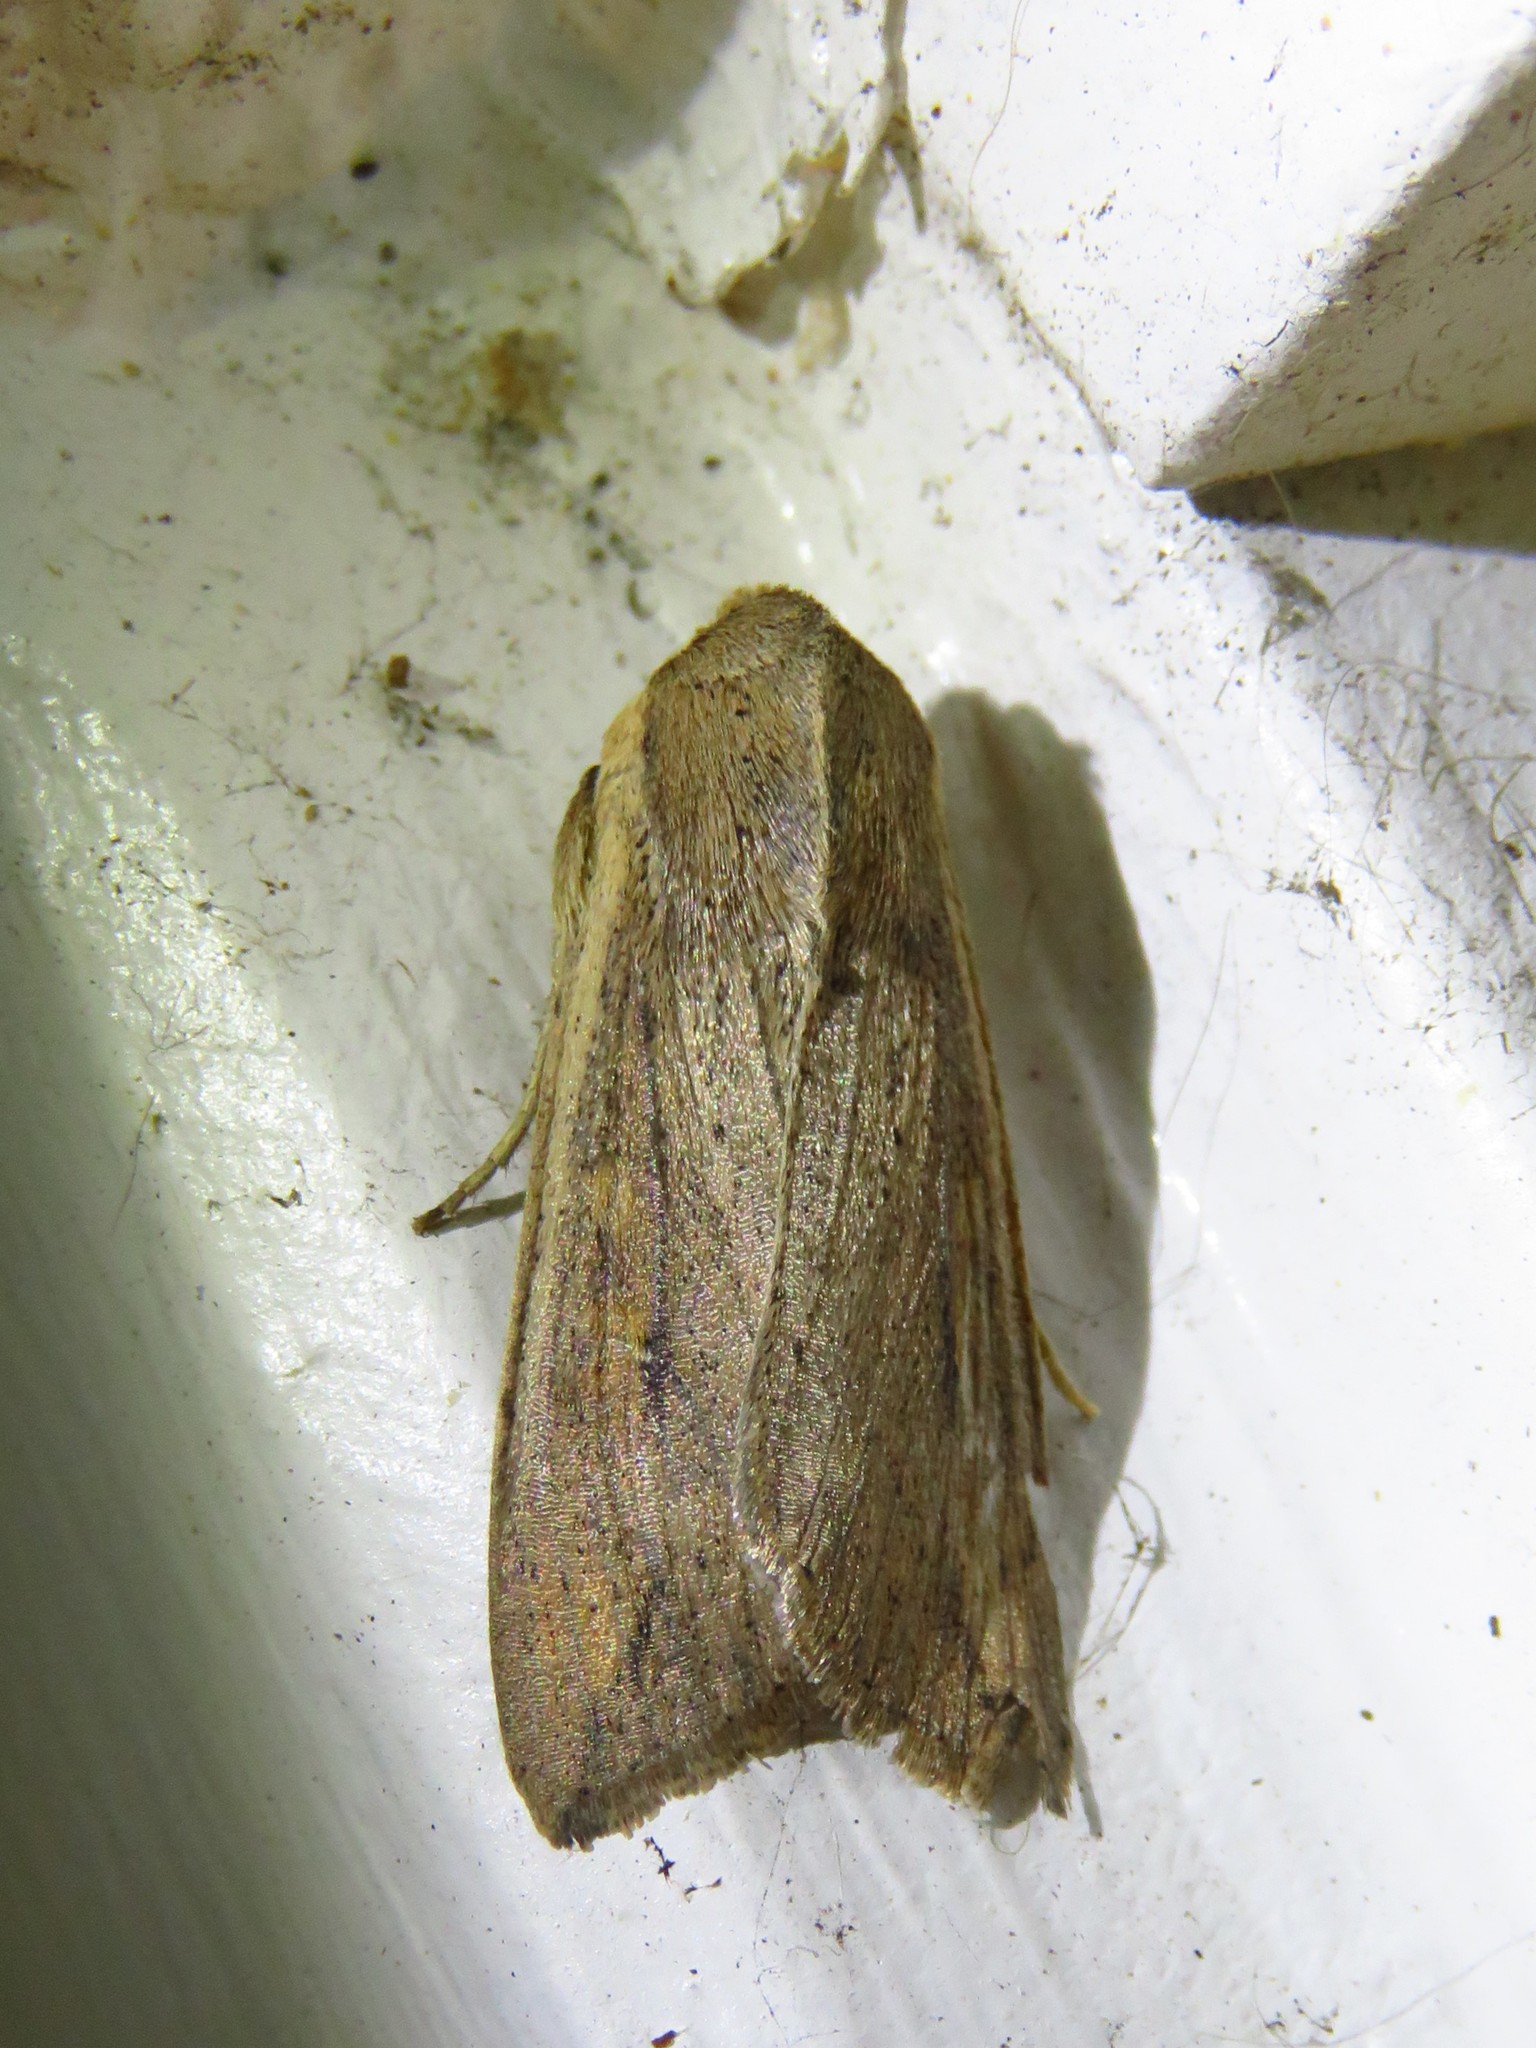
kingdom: Animalia
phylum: Arthropoda
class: Insecta
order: Lepidoptera
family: Noctuidae
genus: Mythimna
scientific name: Mythimna unipuncta
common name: White-speck
